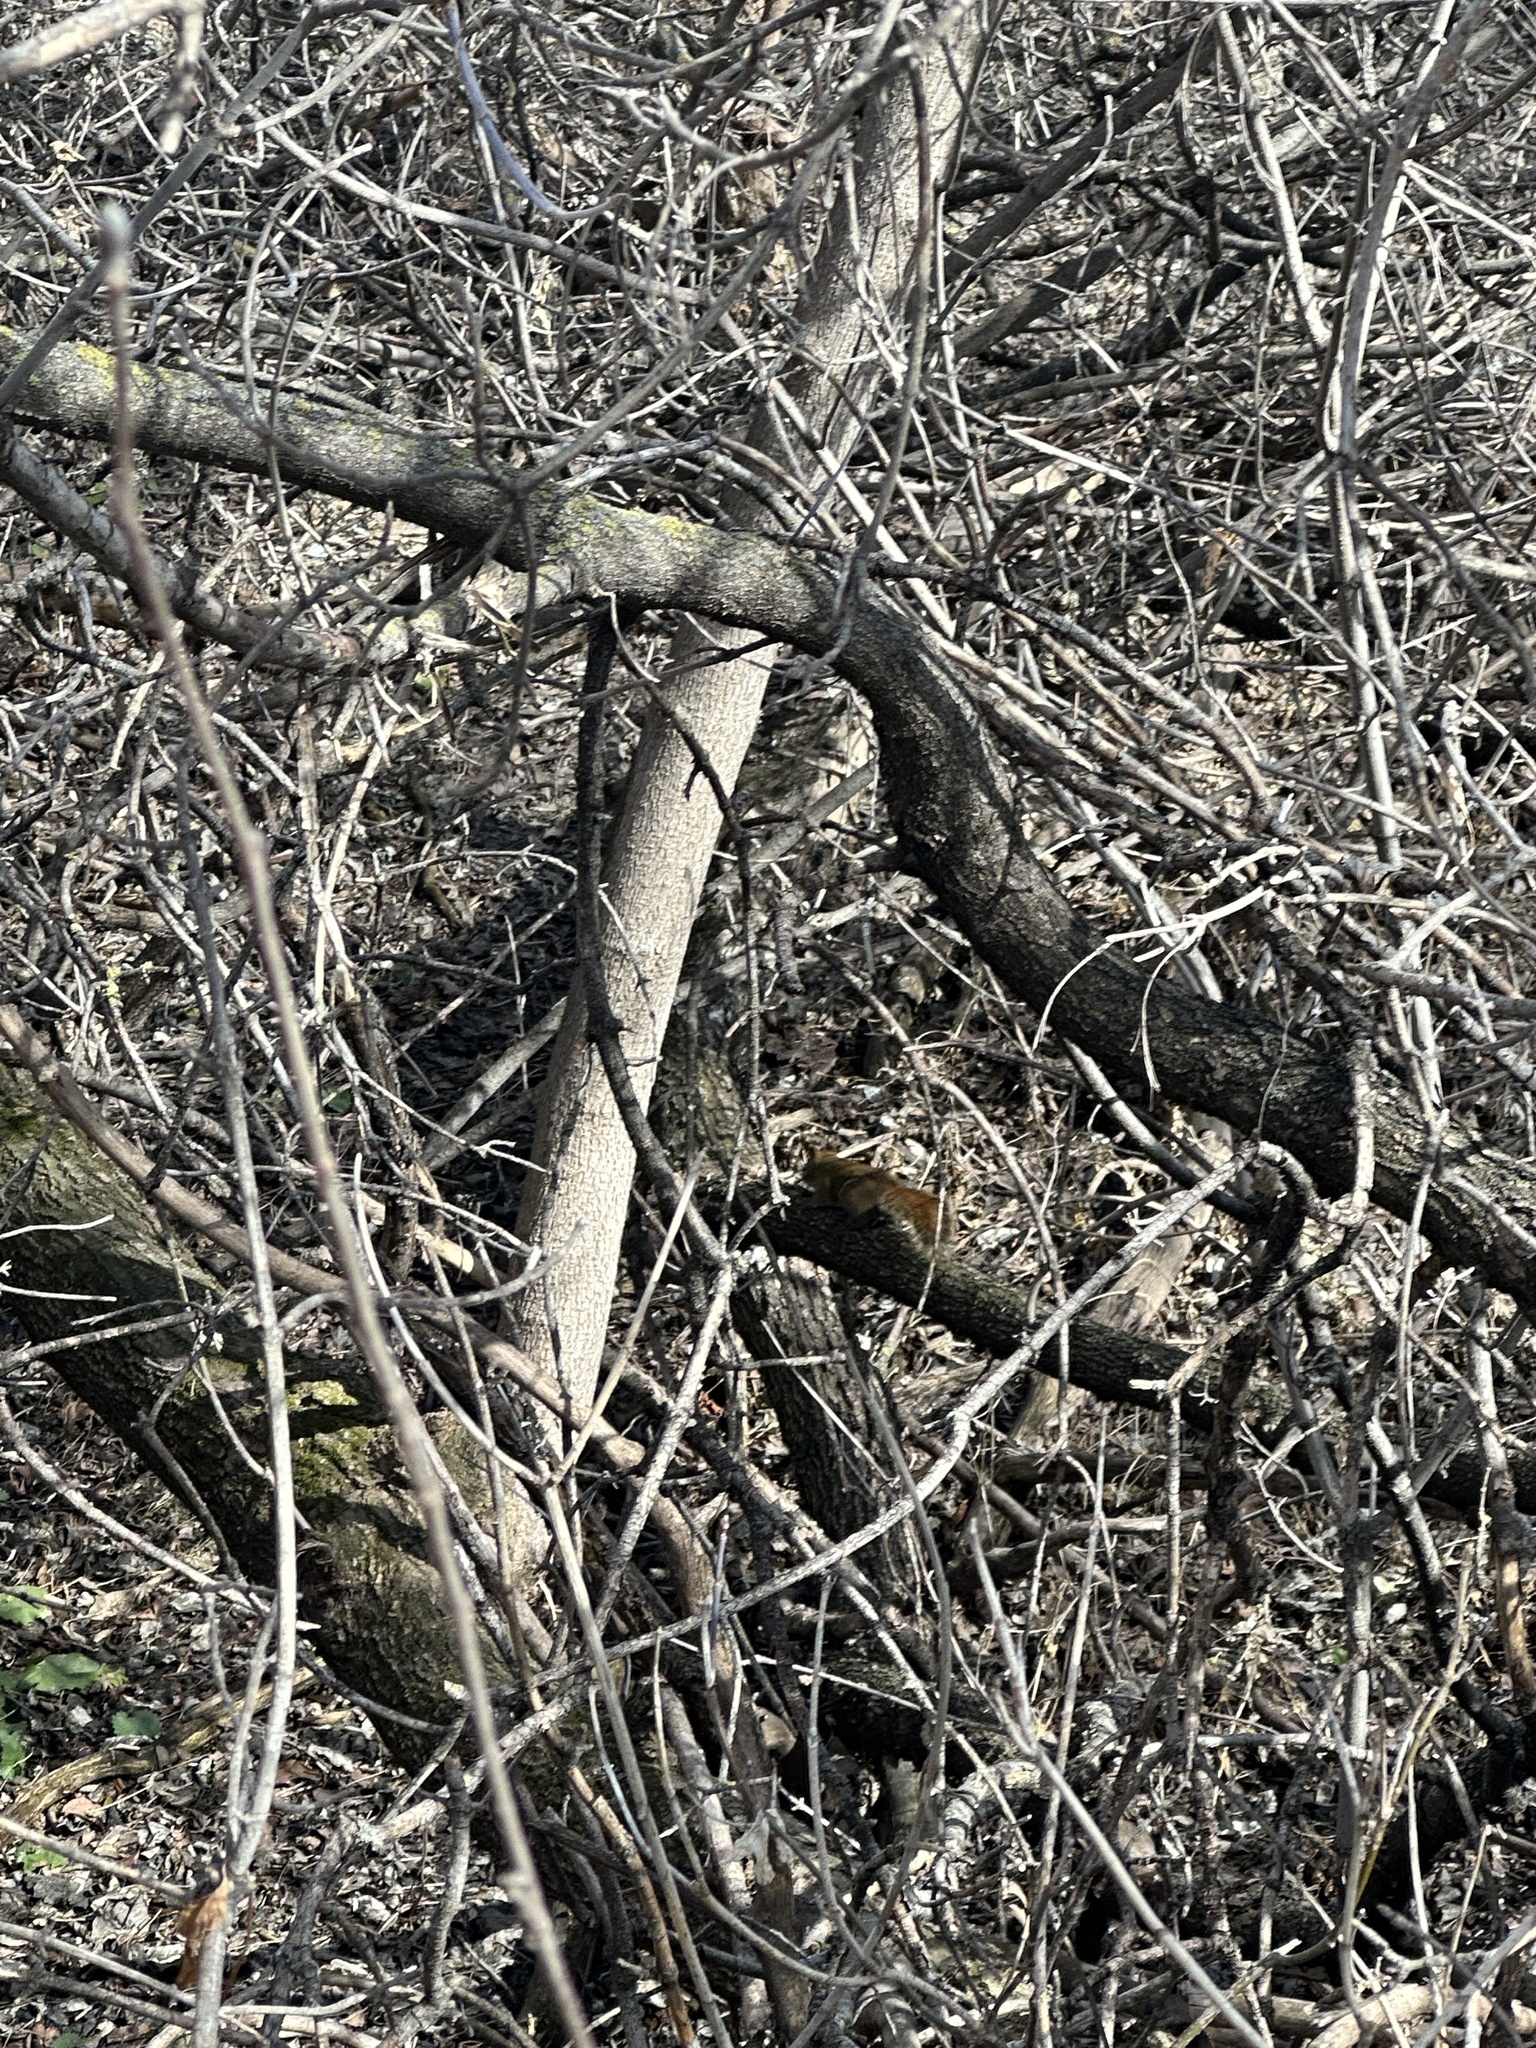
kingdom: Animalia
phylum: Chordata
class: Mammalia
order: Rodentia
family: Sciuridae
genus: Tamiasciurus
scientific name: Tamiasciurus hudsonicus
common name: Red squirrel
